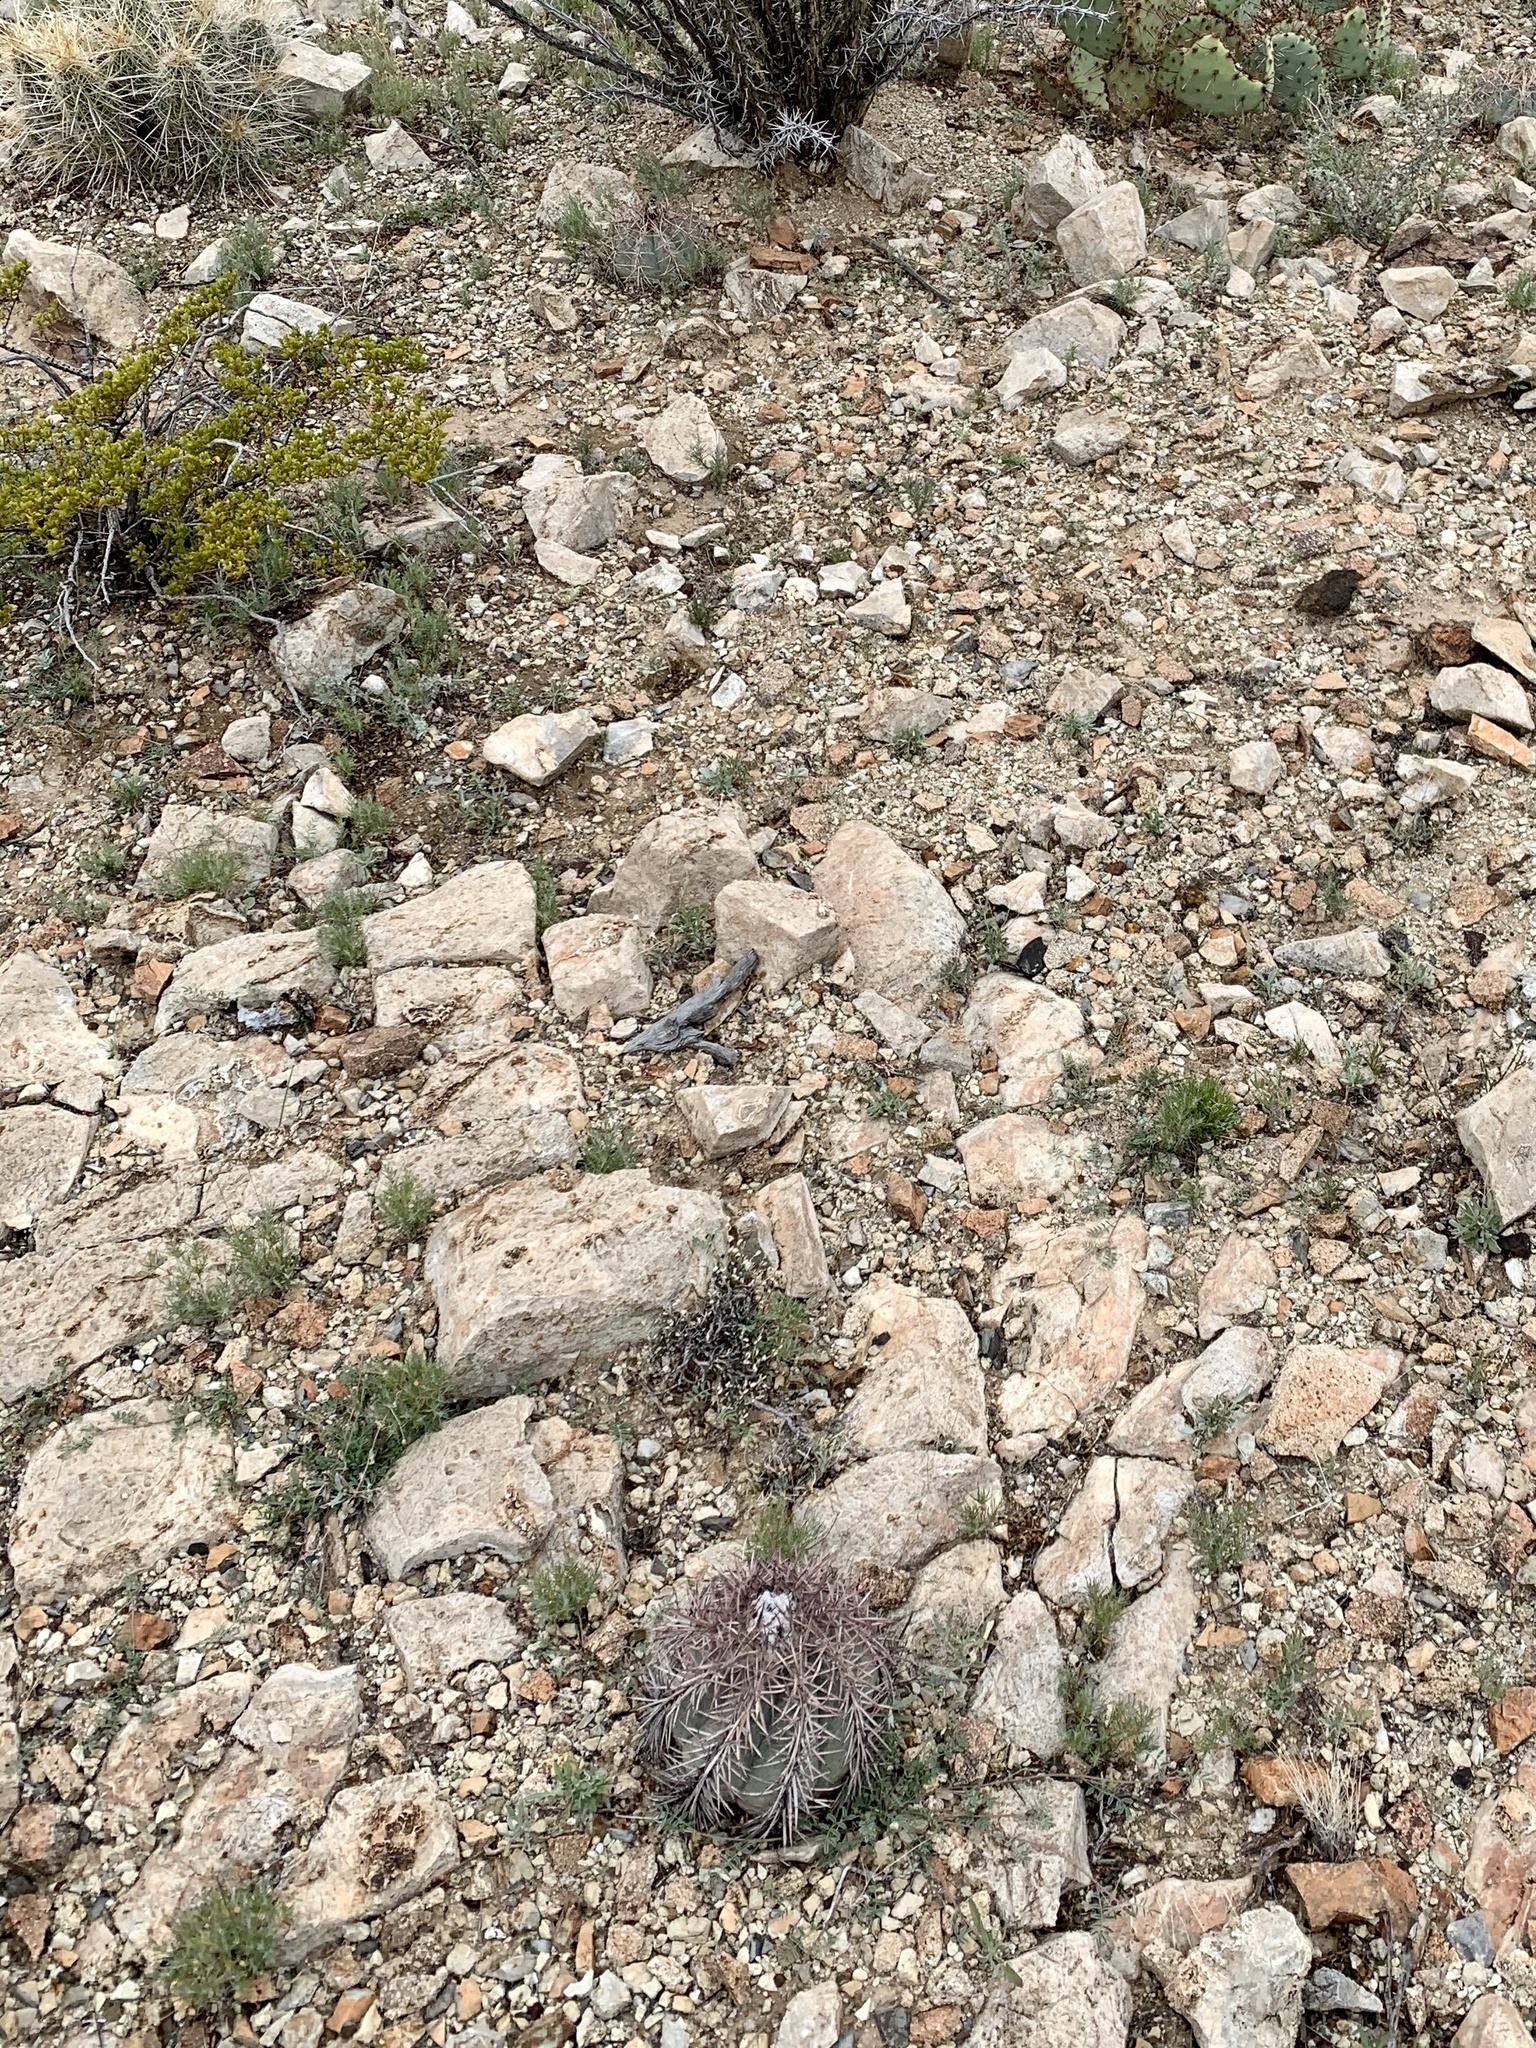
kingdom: Plantae
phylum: Tracheophyta
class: Magnoliopsida
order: Caryophyllales
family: Cactaceae
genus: Echinocactus
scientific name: Echinocactus horizonthalonius
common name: Devilshead
